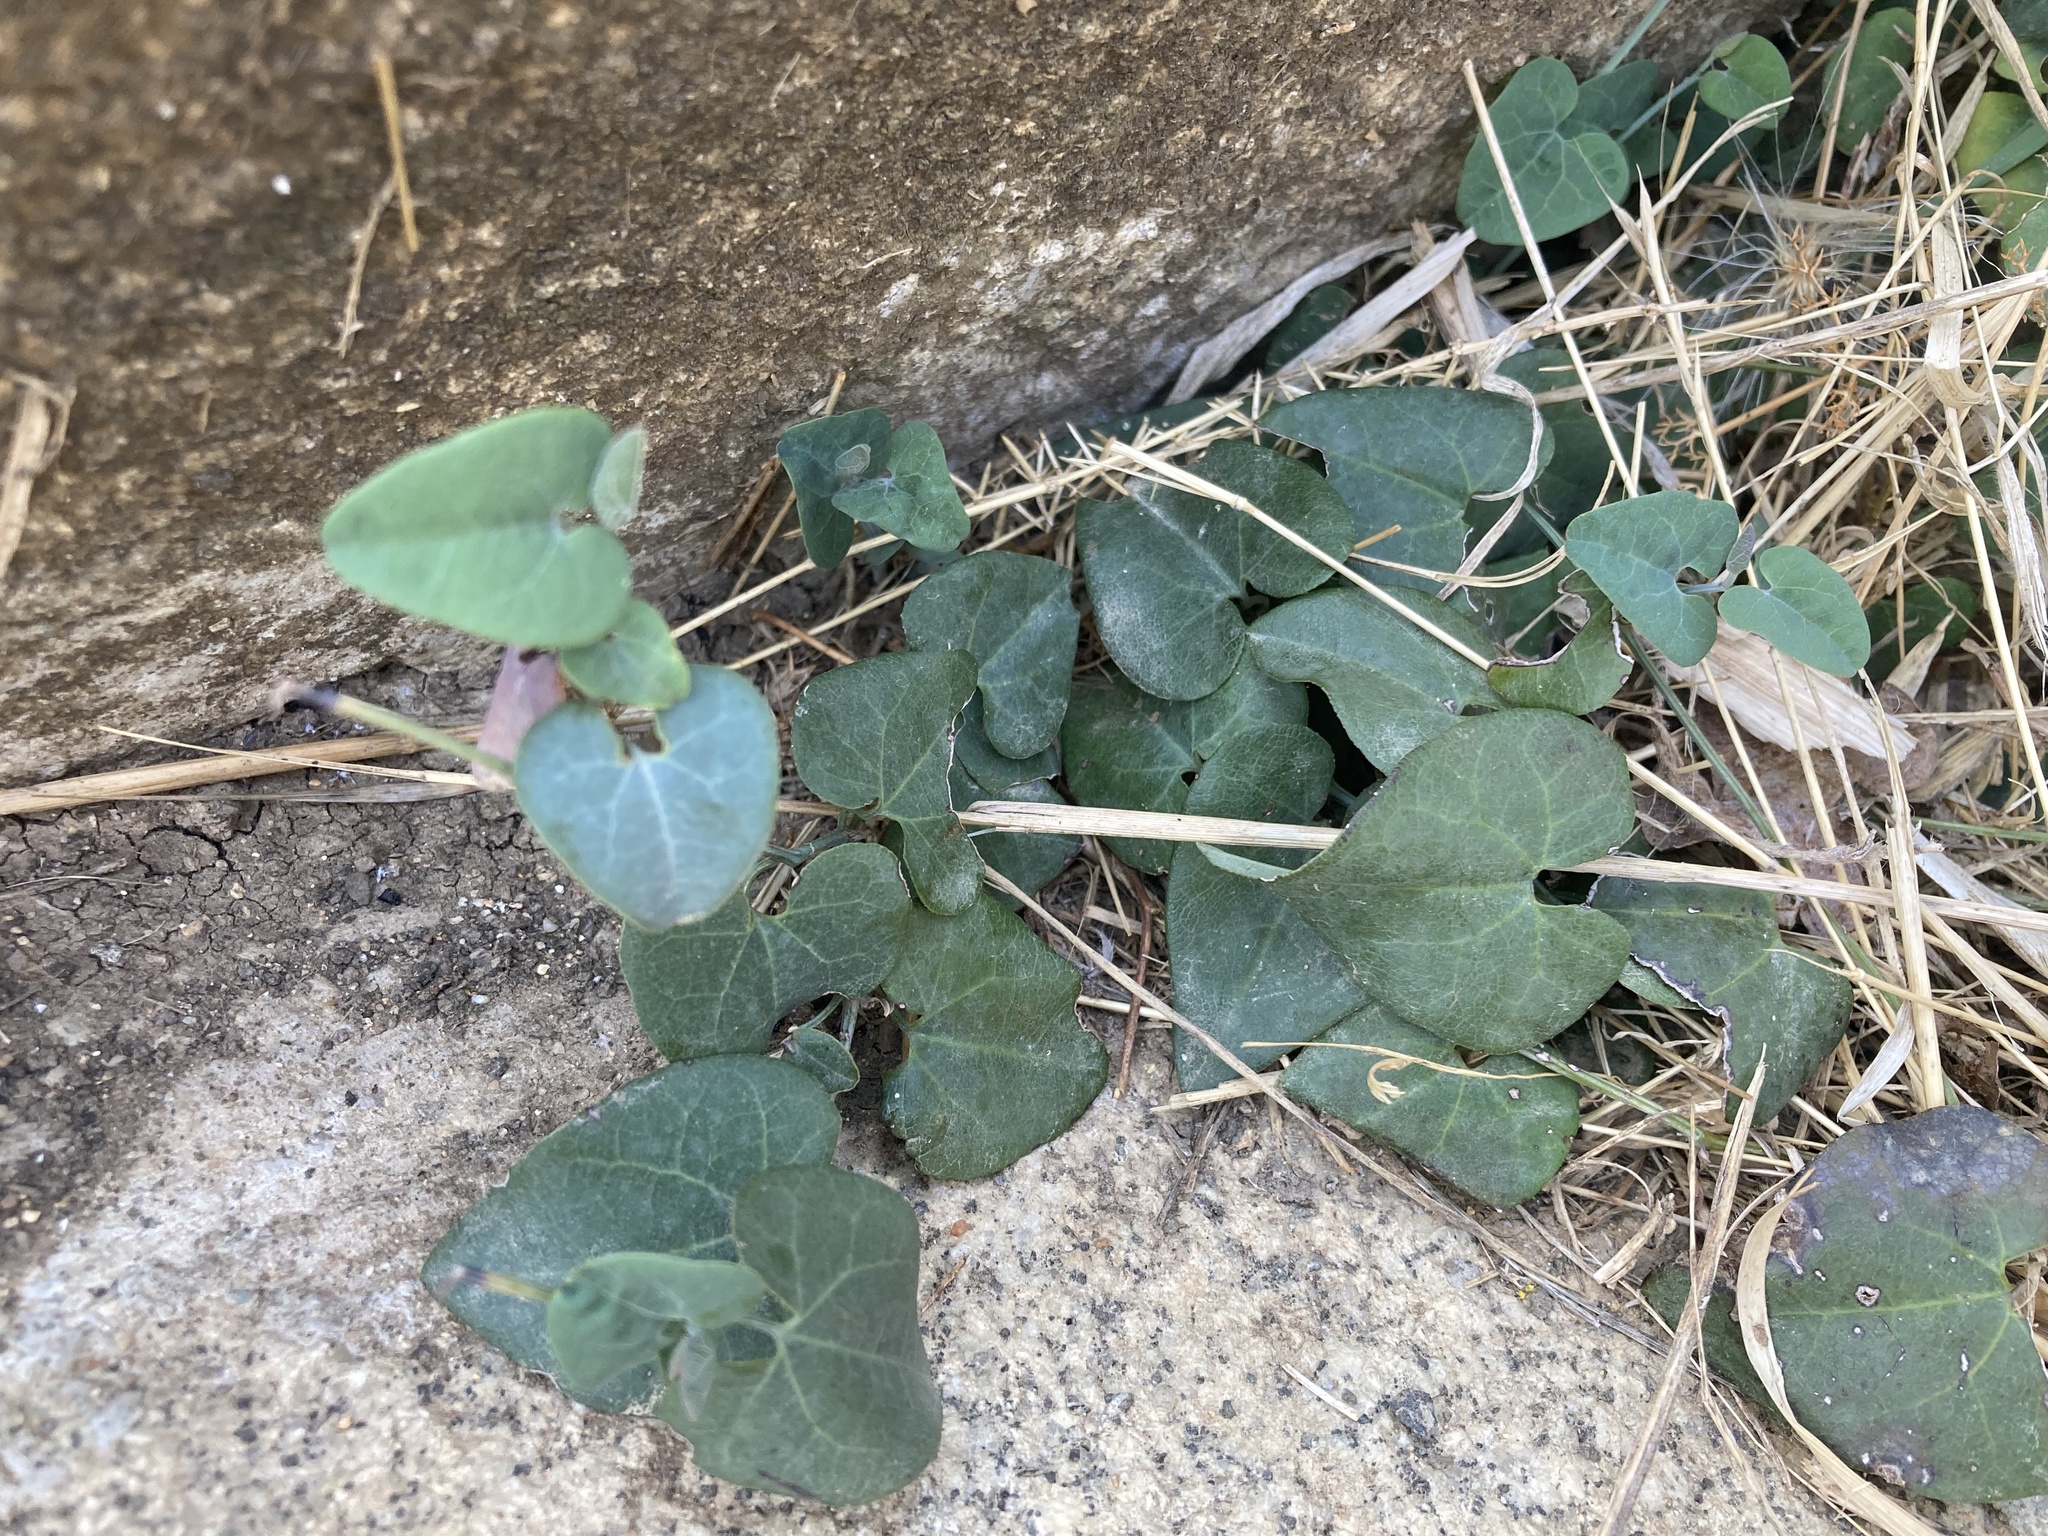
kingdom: Plantae
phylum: Tracheophyta
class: Magnoliopsida
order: Piperales
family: Aristolochiaceae
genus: Aristolochia
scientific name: Aristolochia paucinervis
